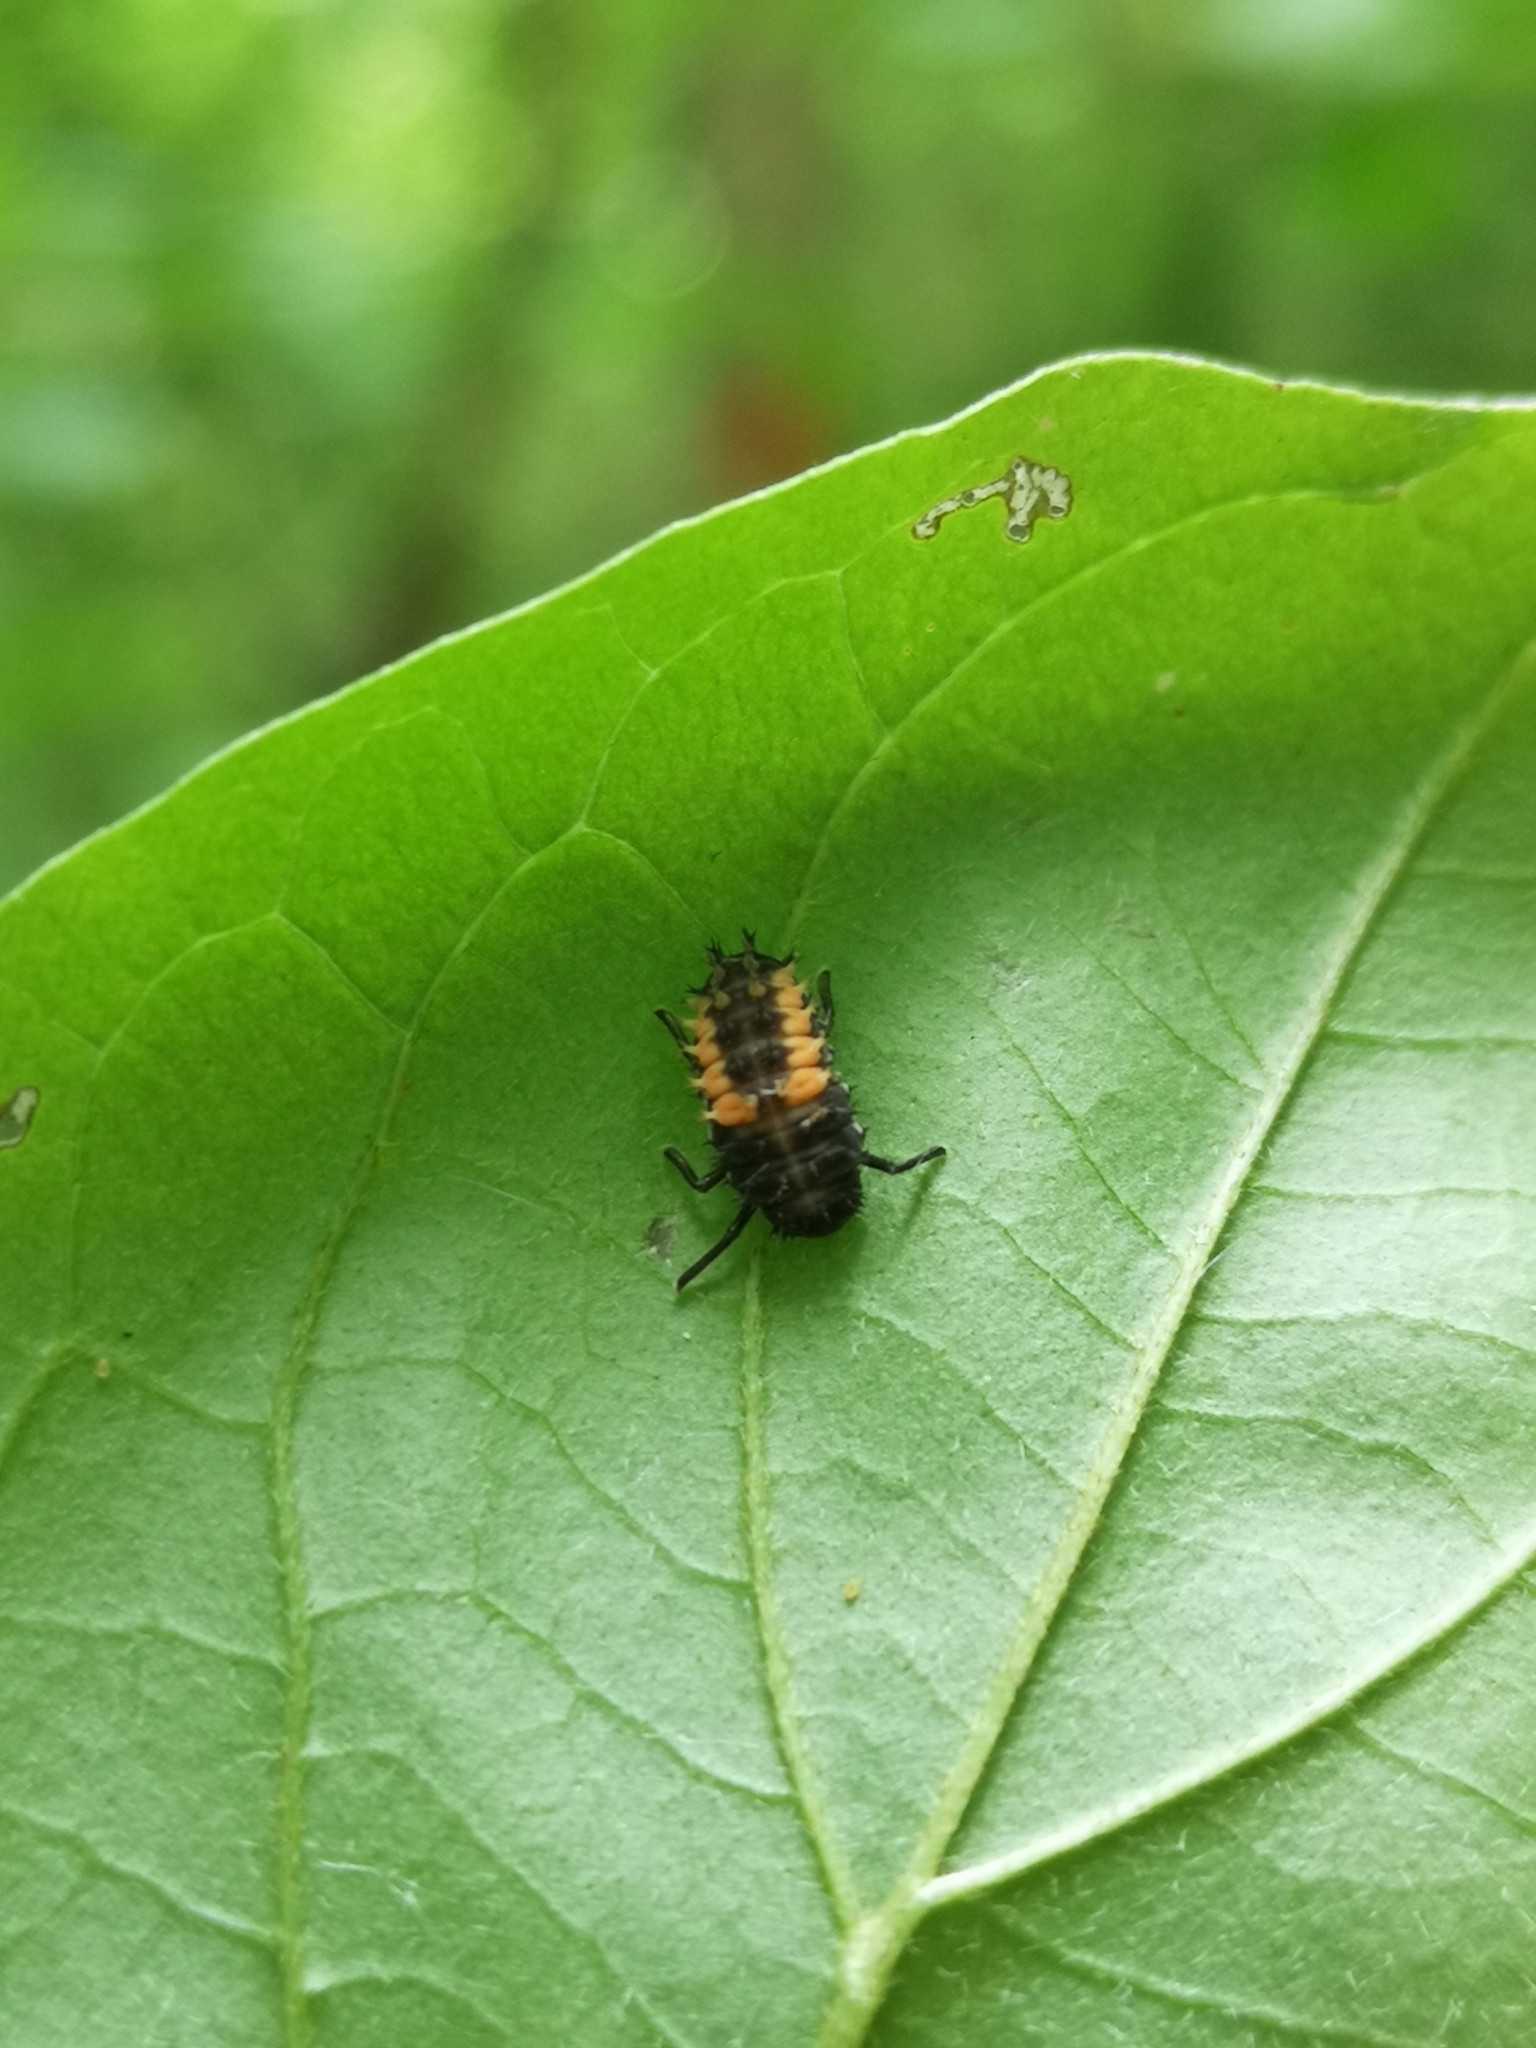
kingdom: Animalia
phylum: Arthropoda
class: Insecta
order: Coleoptera
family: Coccinellidae
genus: Harmonia
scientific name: Harmonia axyridis
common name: Harlequin ladybird
